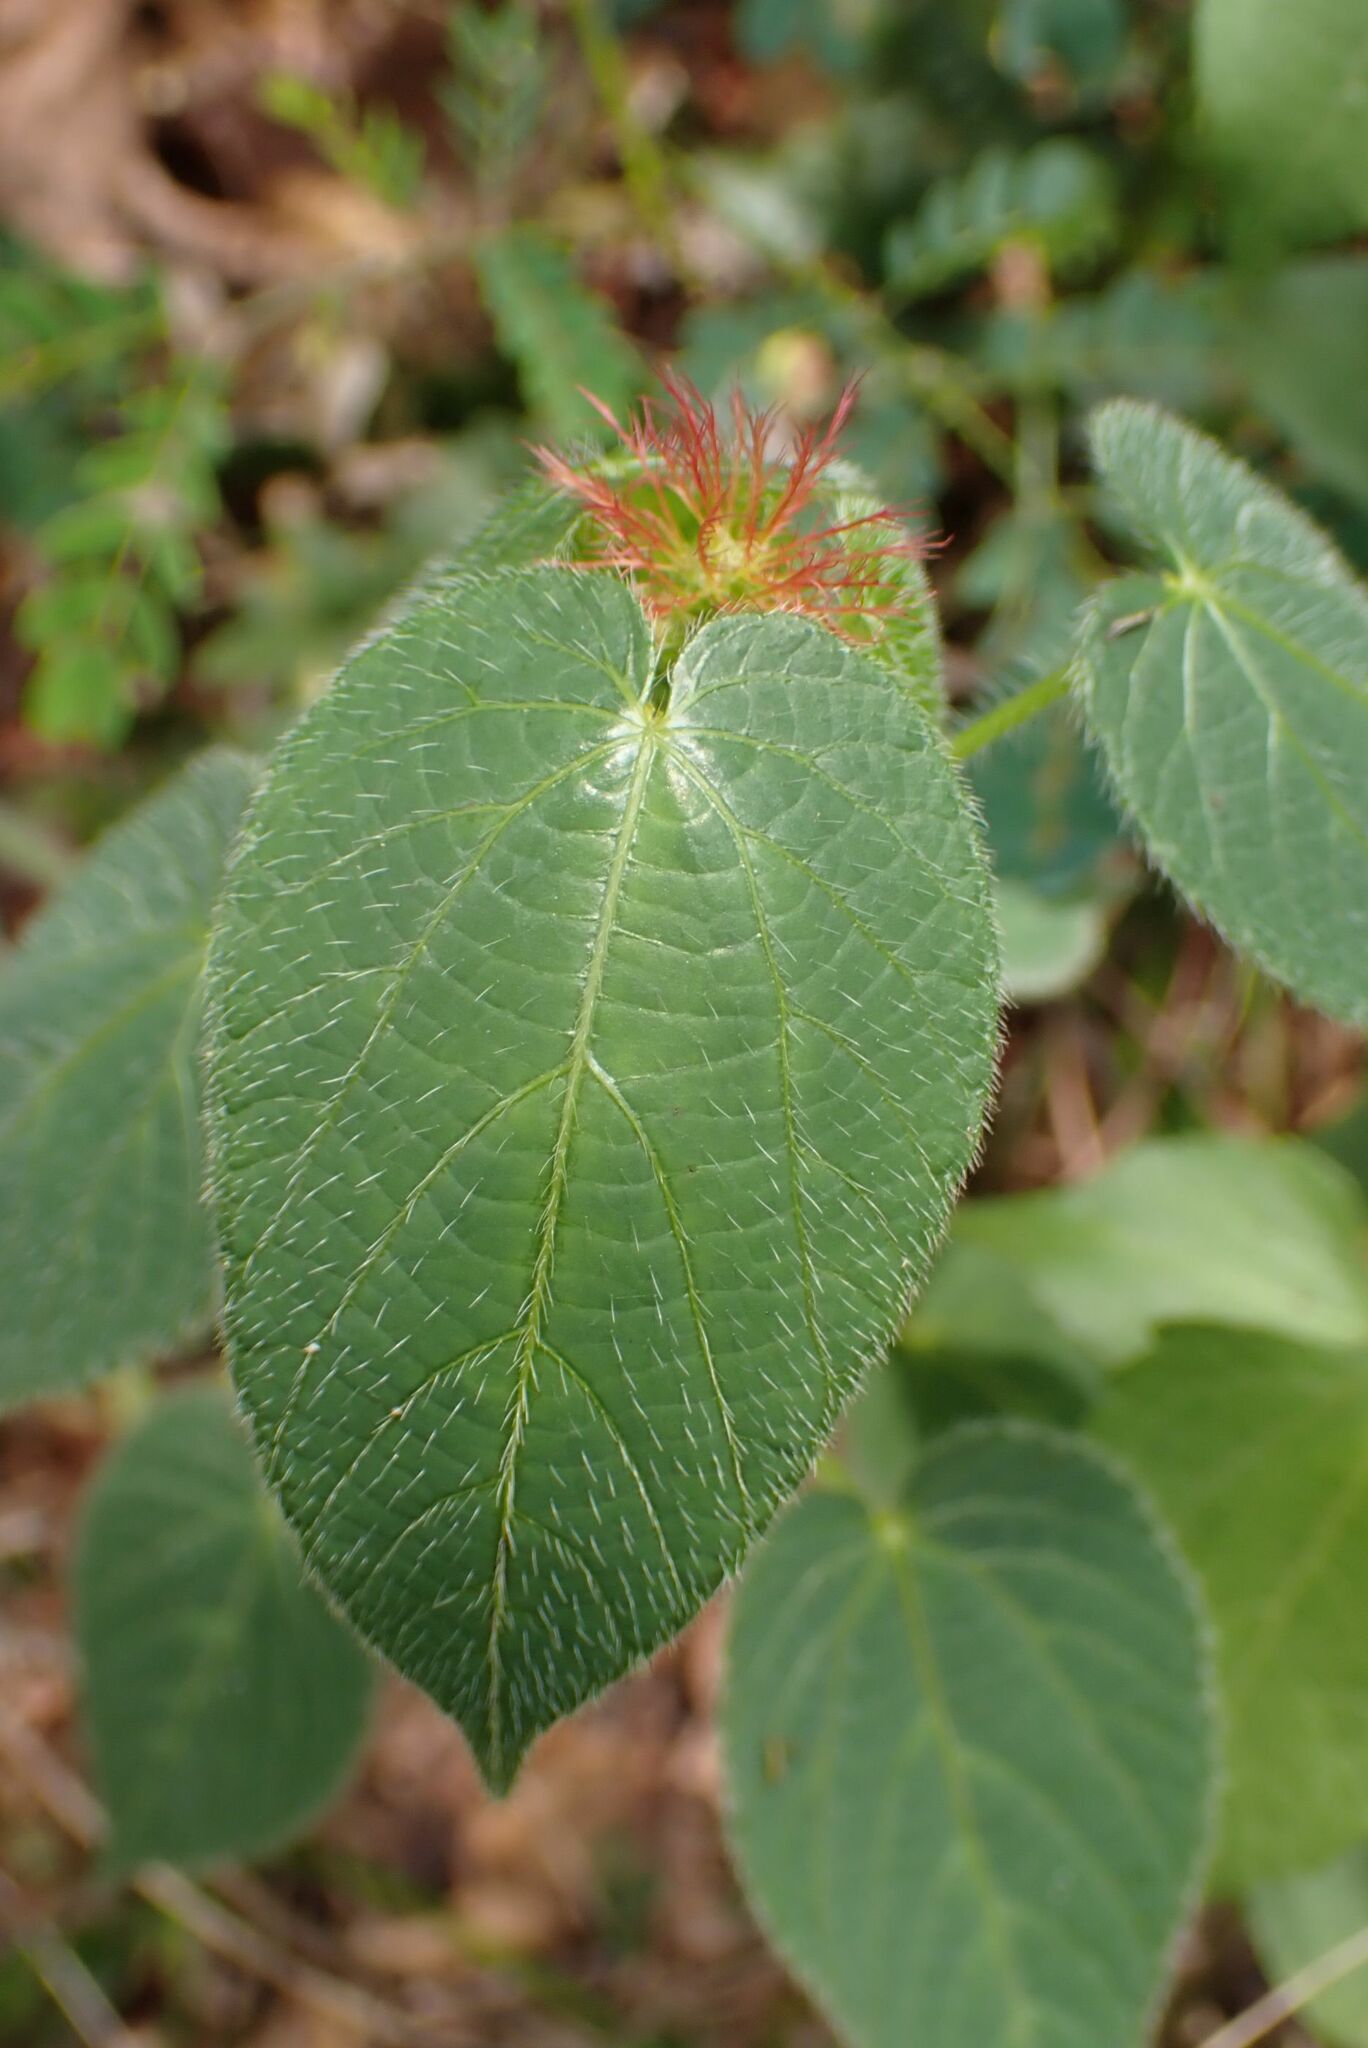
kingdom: Plantae
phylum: Tracheophyta
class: Magnoliopsida
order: Malpighiales
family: Euphorbiaceae
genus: Acalypha
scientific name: Acalypha petiolaris
